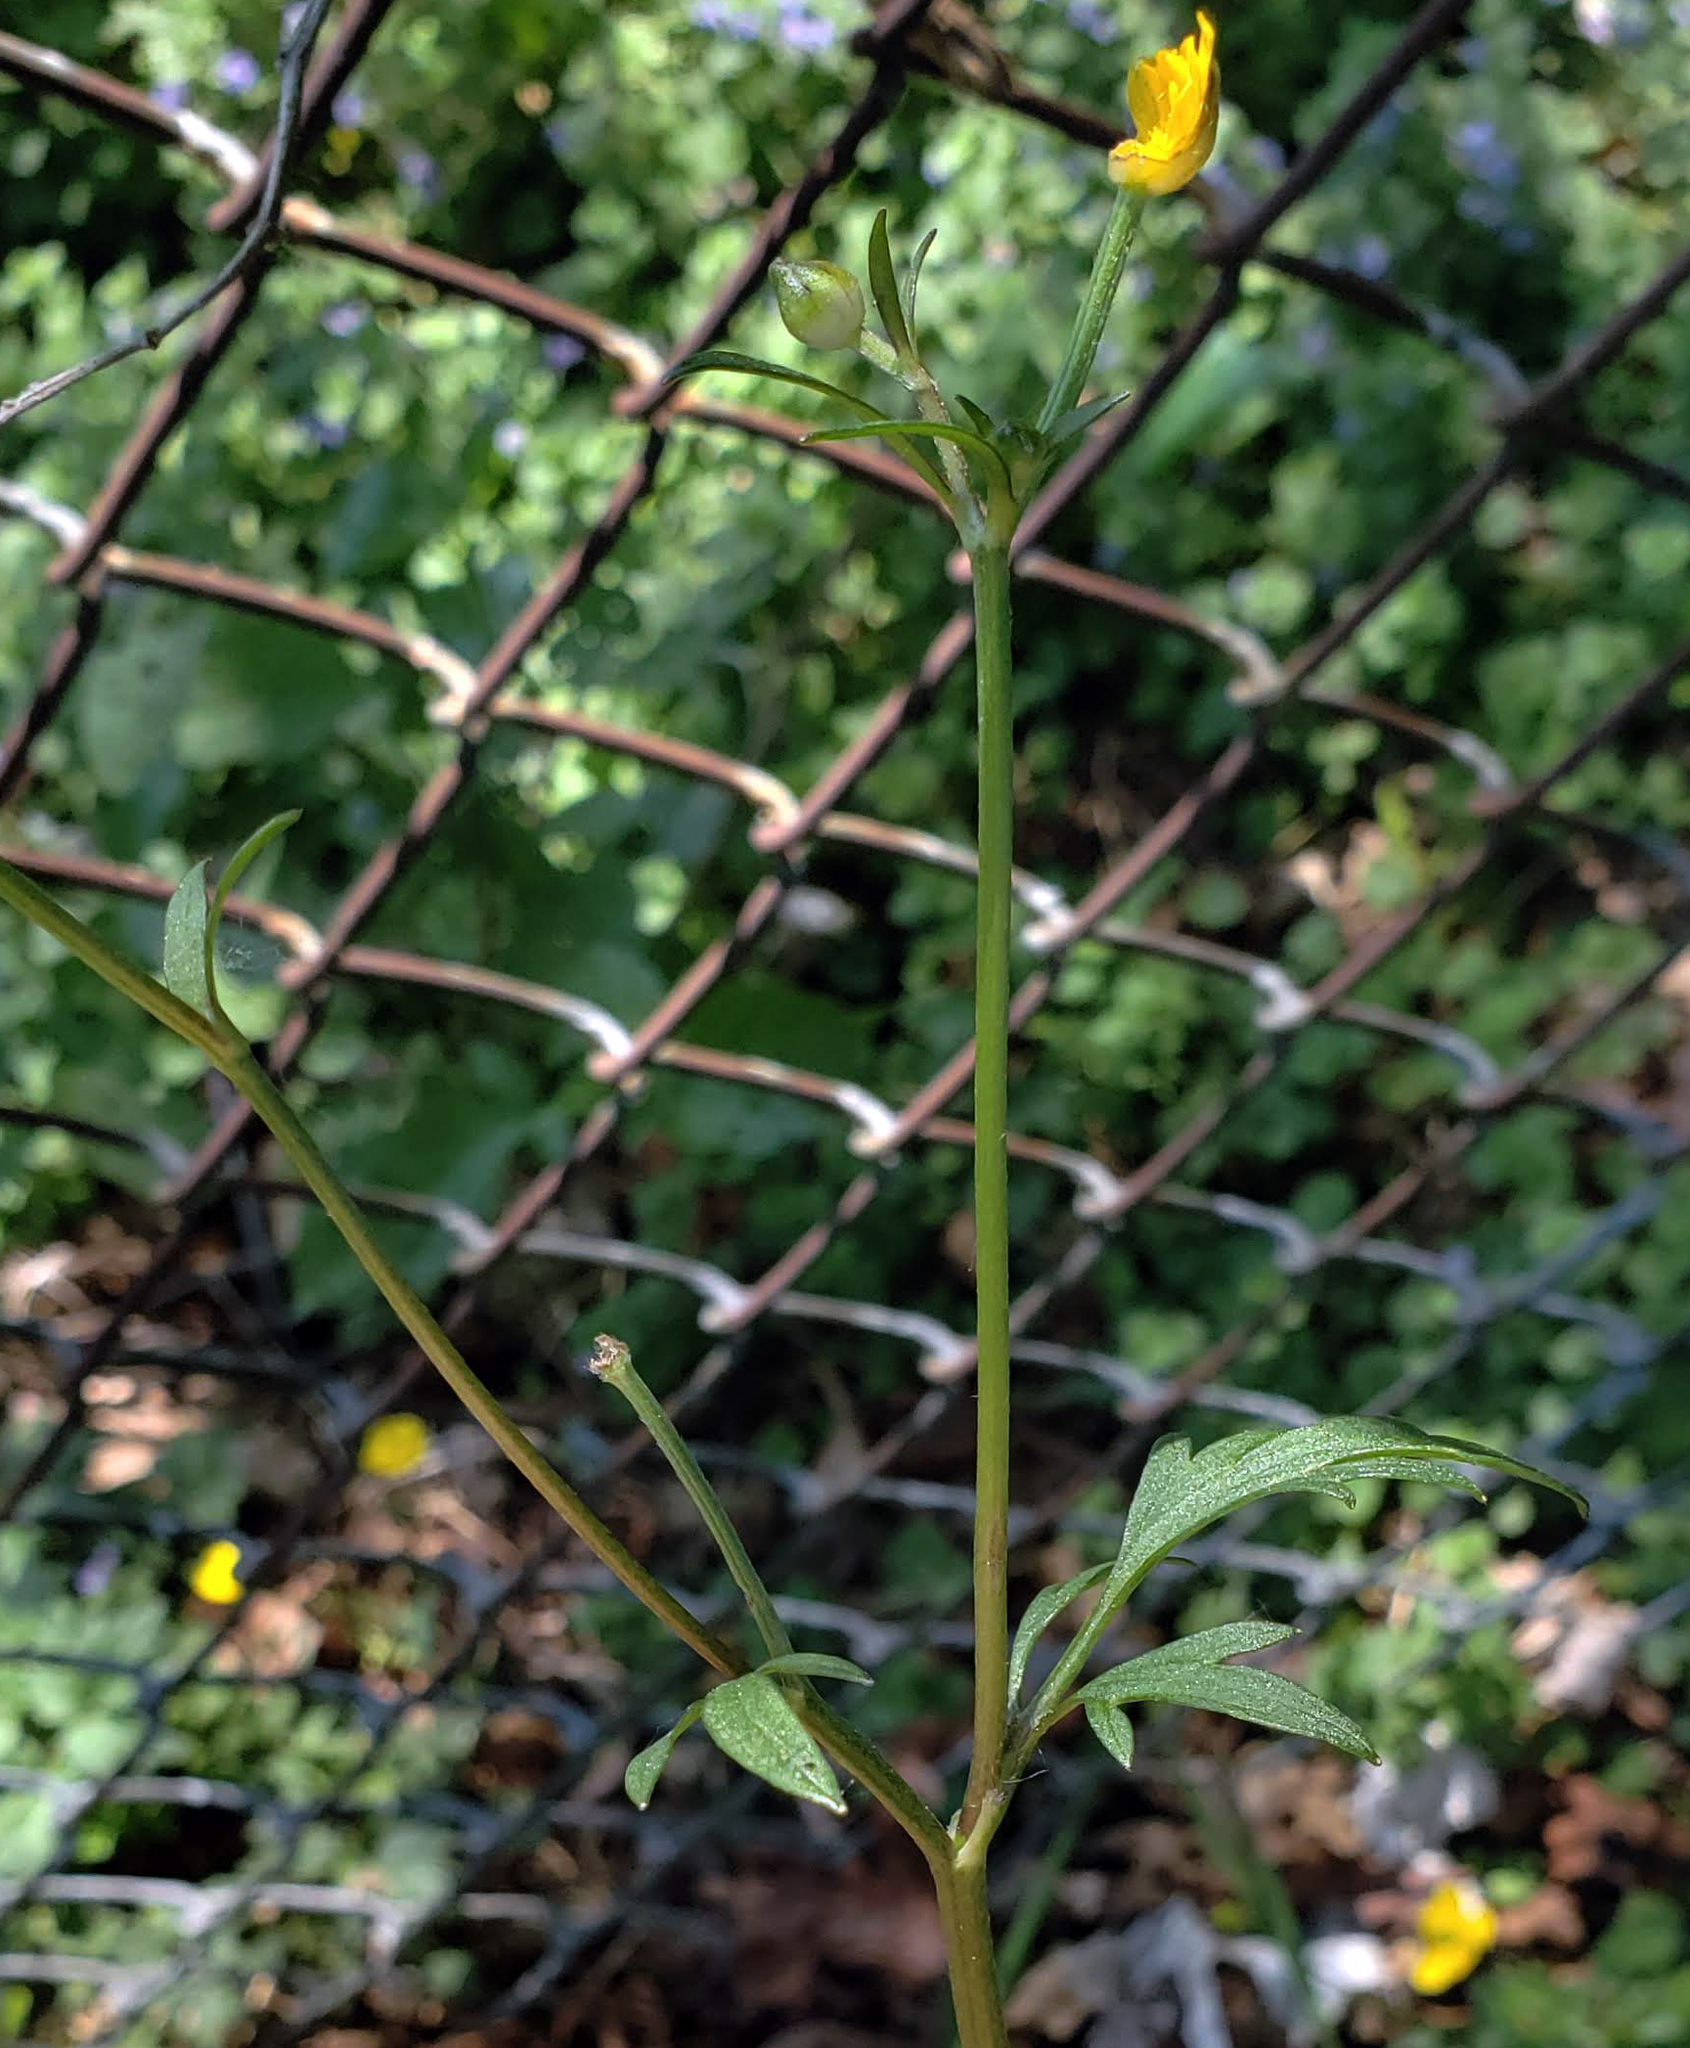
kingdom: Plantae
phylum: Tracheophyta
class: Magnoliopsida
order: Ranunculales
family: Ranunculaceae
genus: Ranunculus
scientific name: Ranunculus repens
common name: Creeping buttercup
